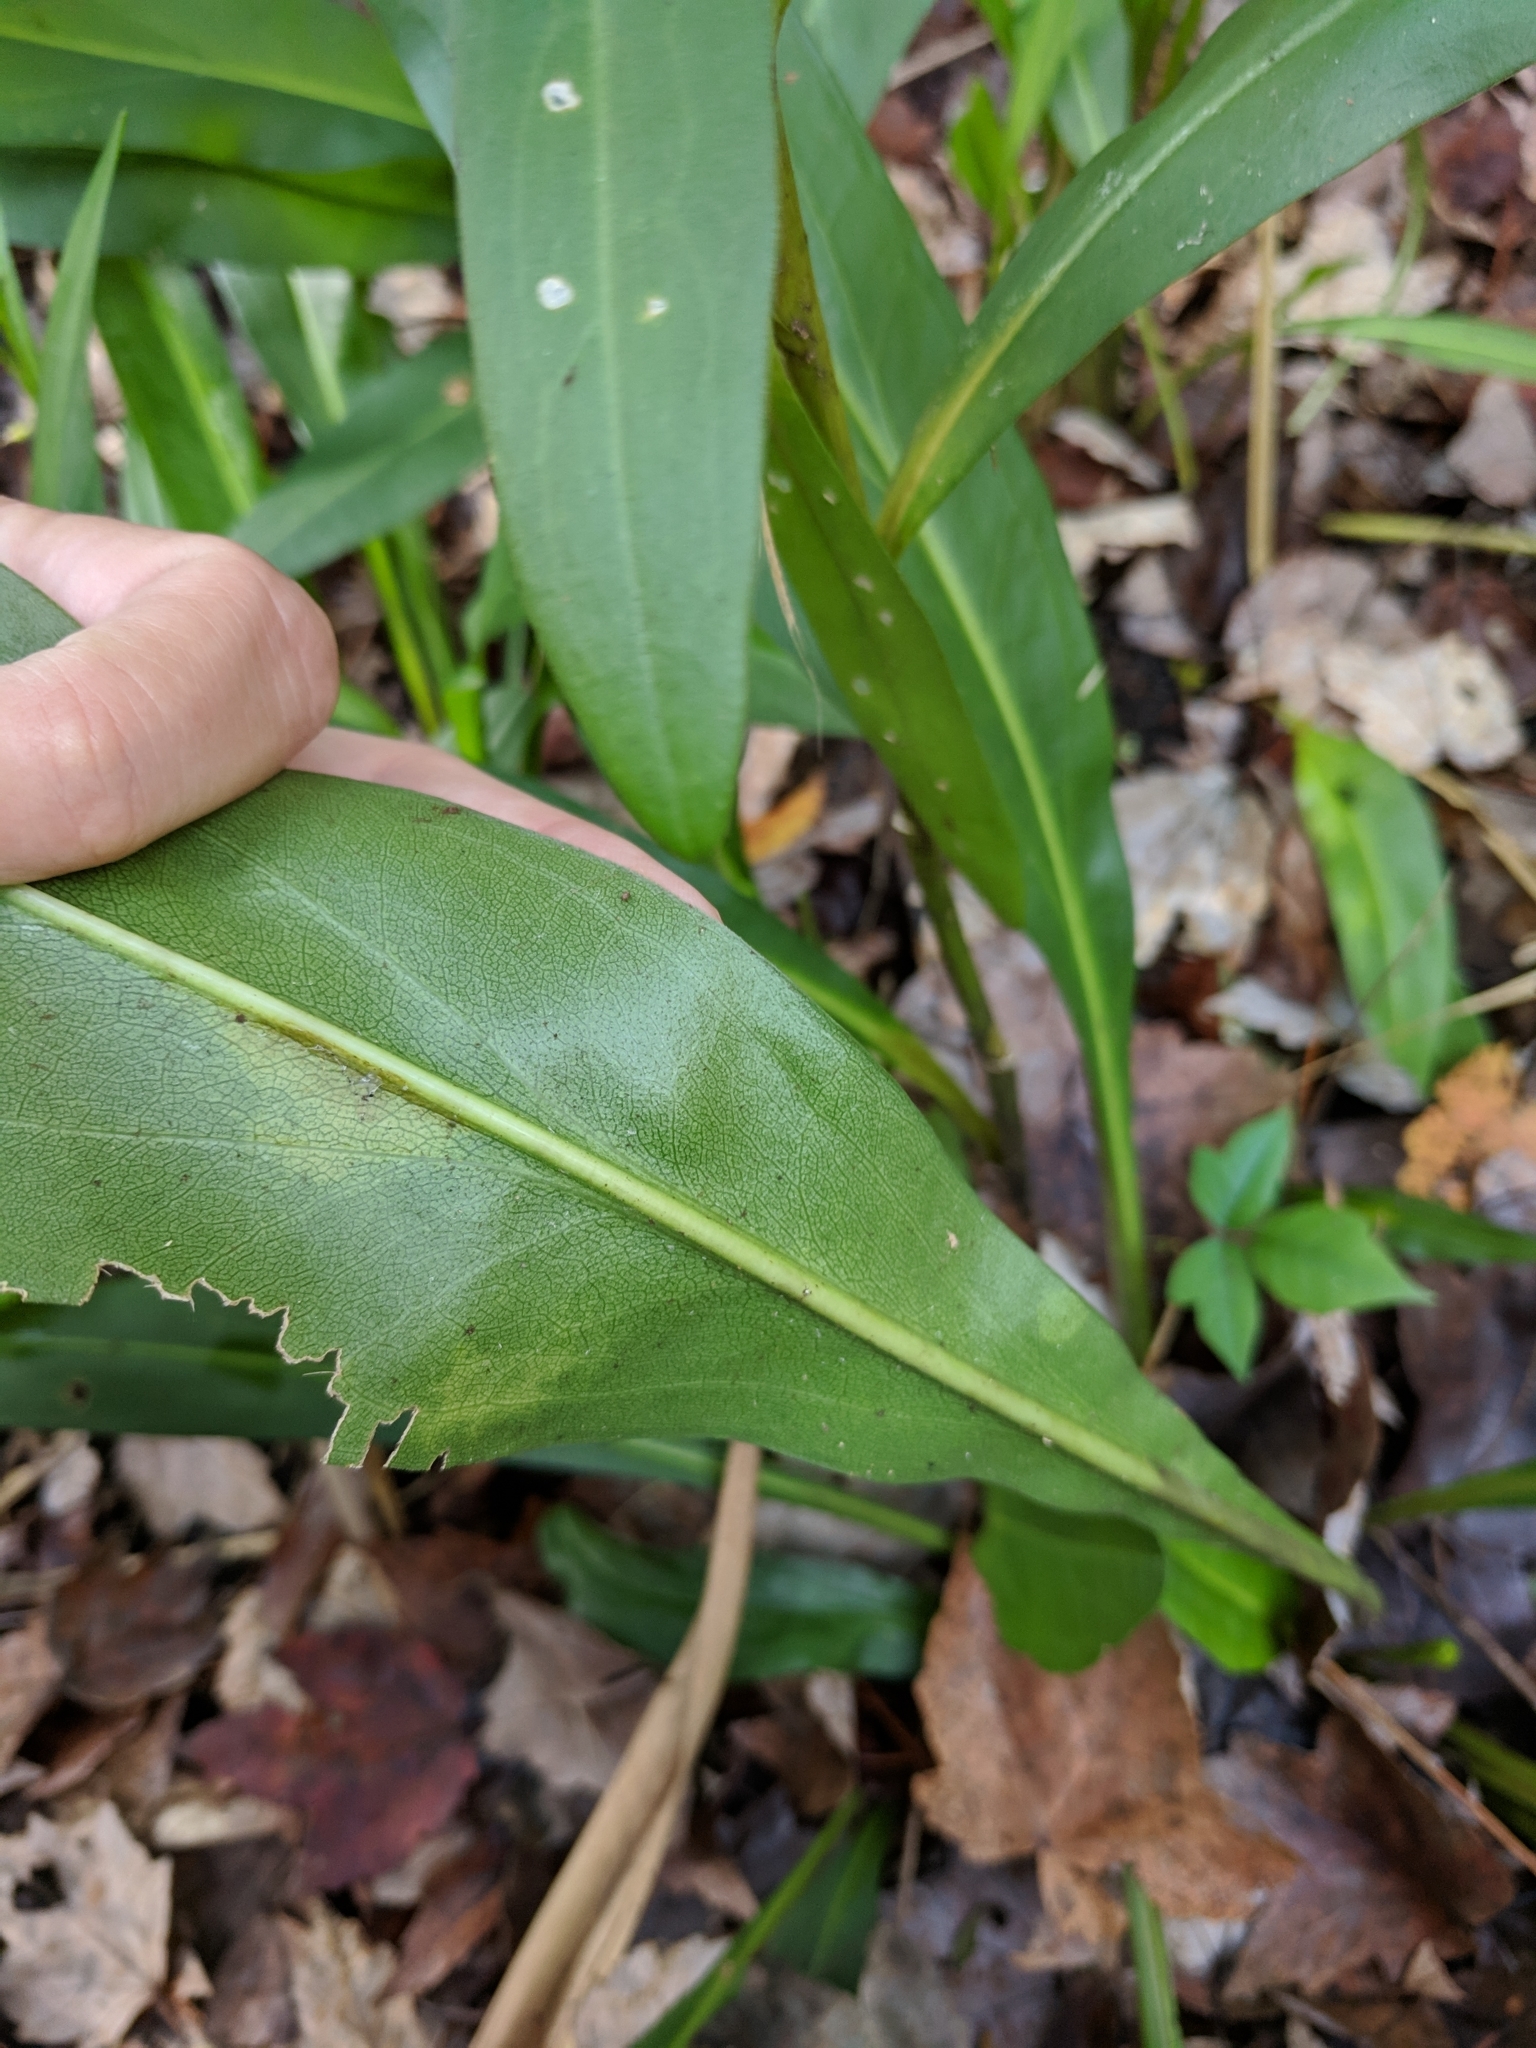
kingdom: Plantae
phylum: Tracheophyta
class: Magnoliopsida
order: Asterales
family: Asteraceae
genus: Solidago
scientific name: Solidago mexicana
